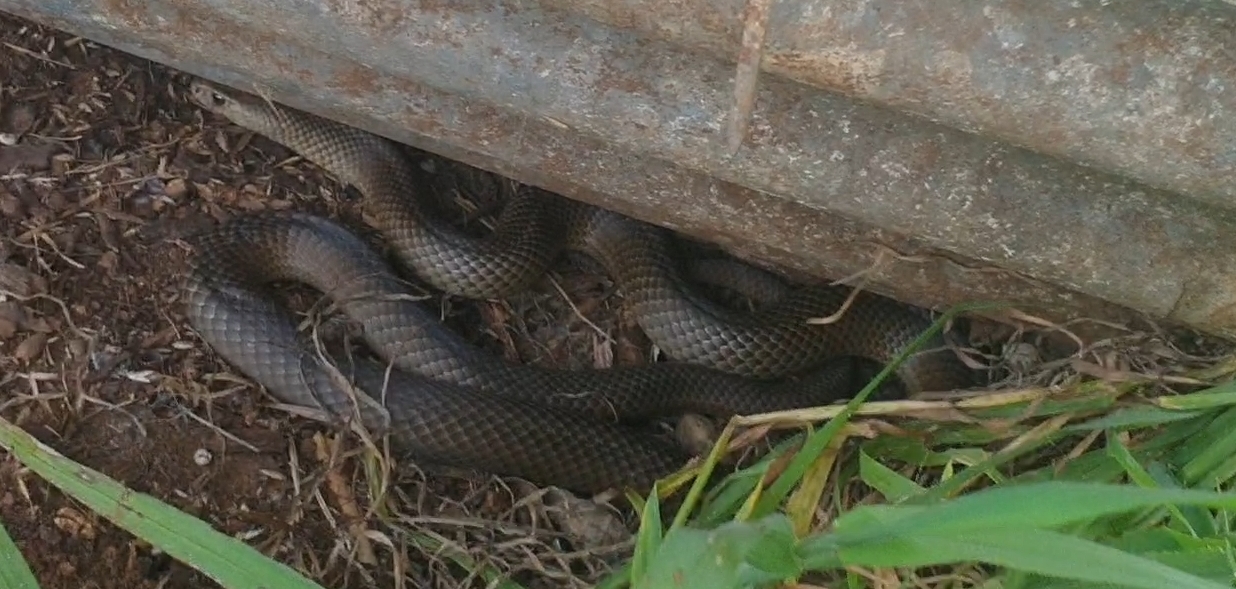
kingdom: Animalia
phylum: Chordata
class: Squamata
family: Elapidae
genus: Pseudonaja
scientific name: Pseudonaja textilis
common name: Eastern brown snake
